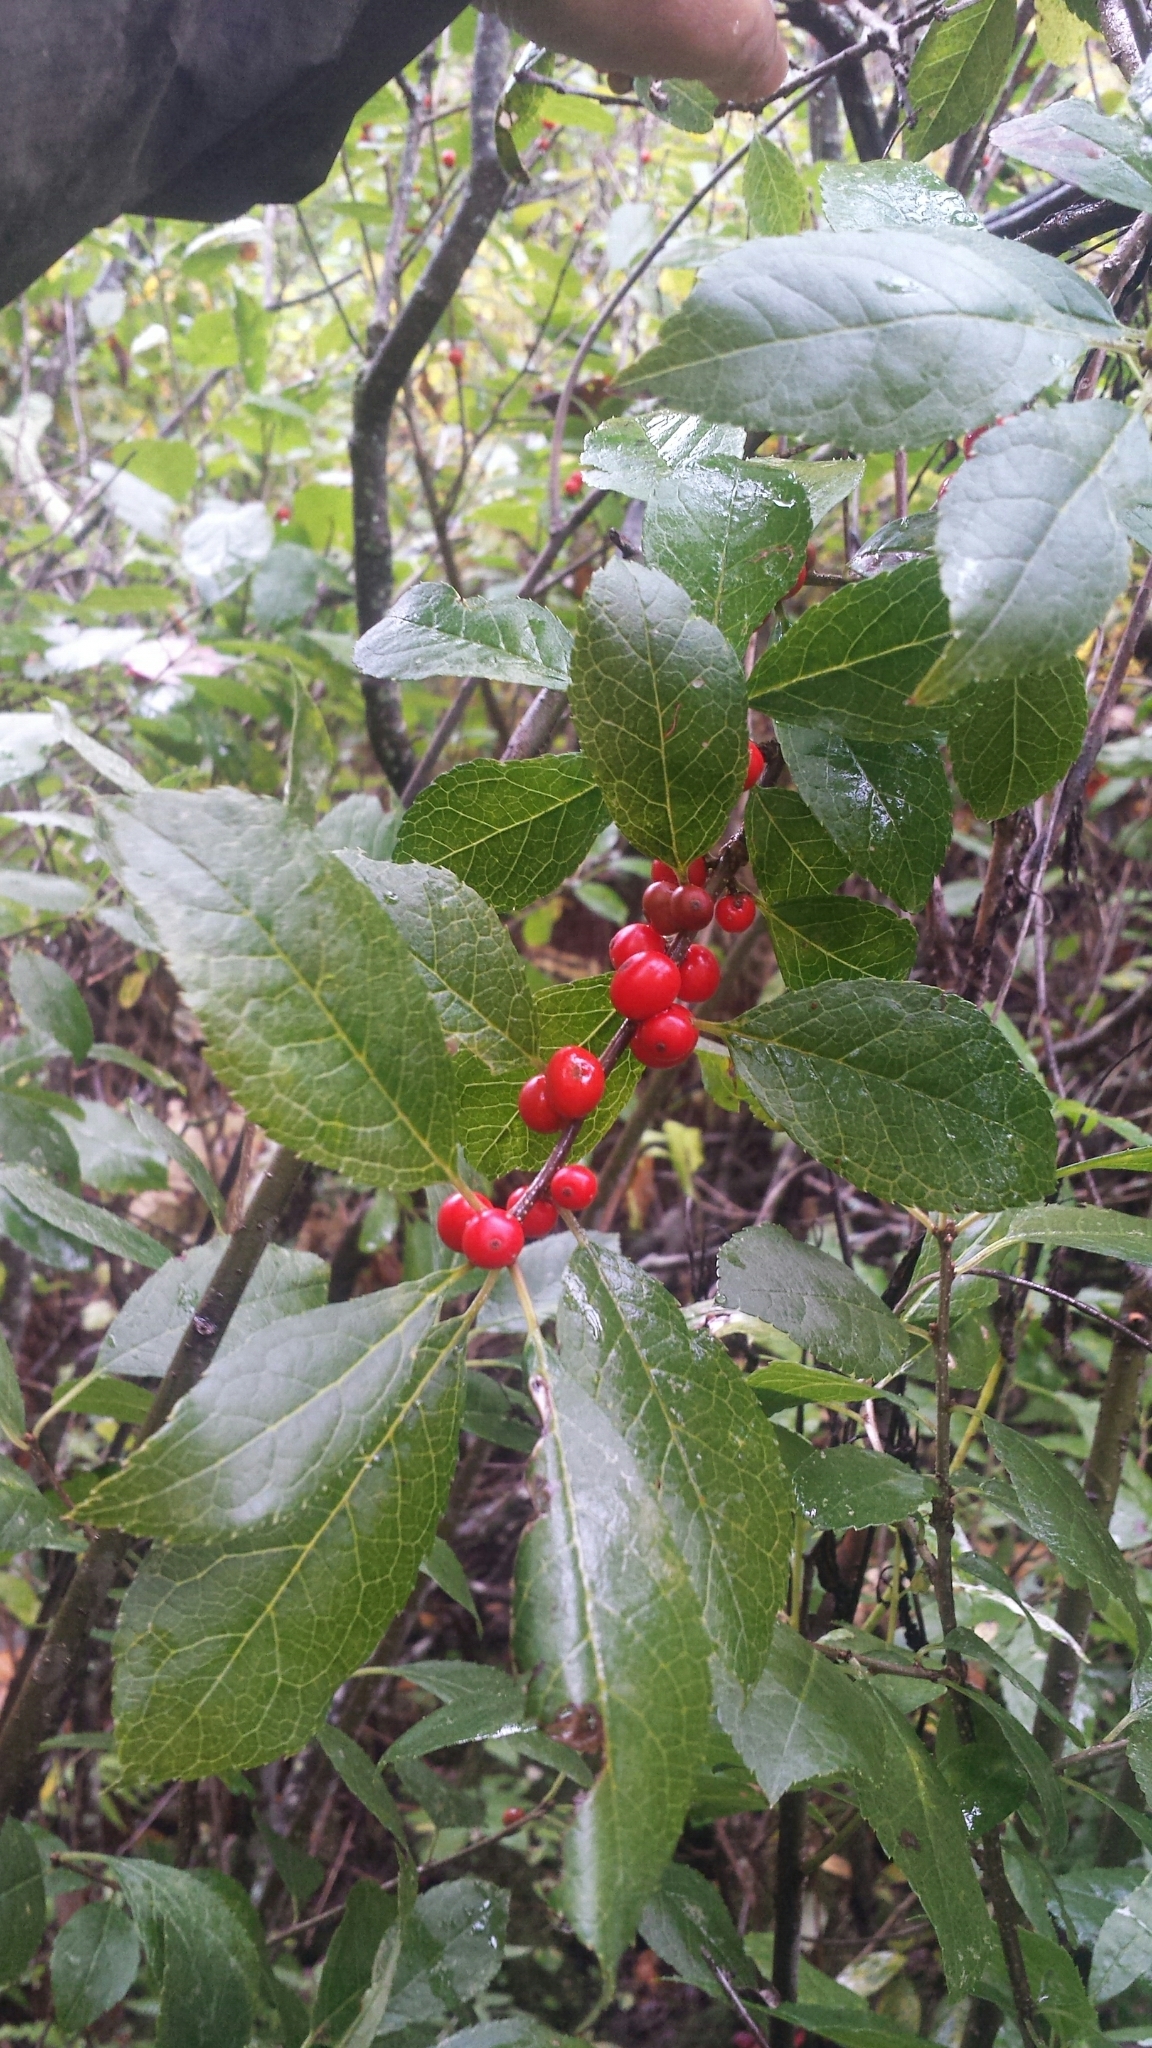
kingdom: Plantae
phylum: Tracheophyta
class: Magnoliopsida
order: Aquifoliales
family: Aquifoliaceae
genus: Ilex
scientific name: Ilex verticillata
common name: Virginia winterberry
